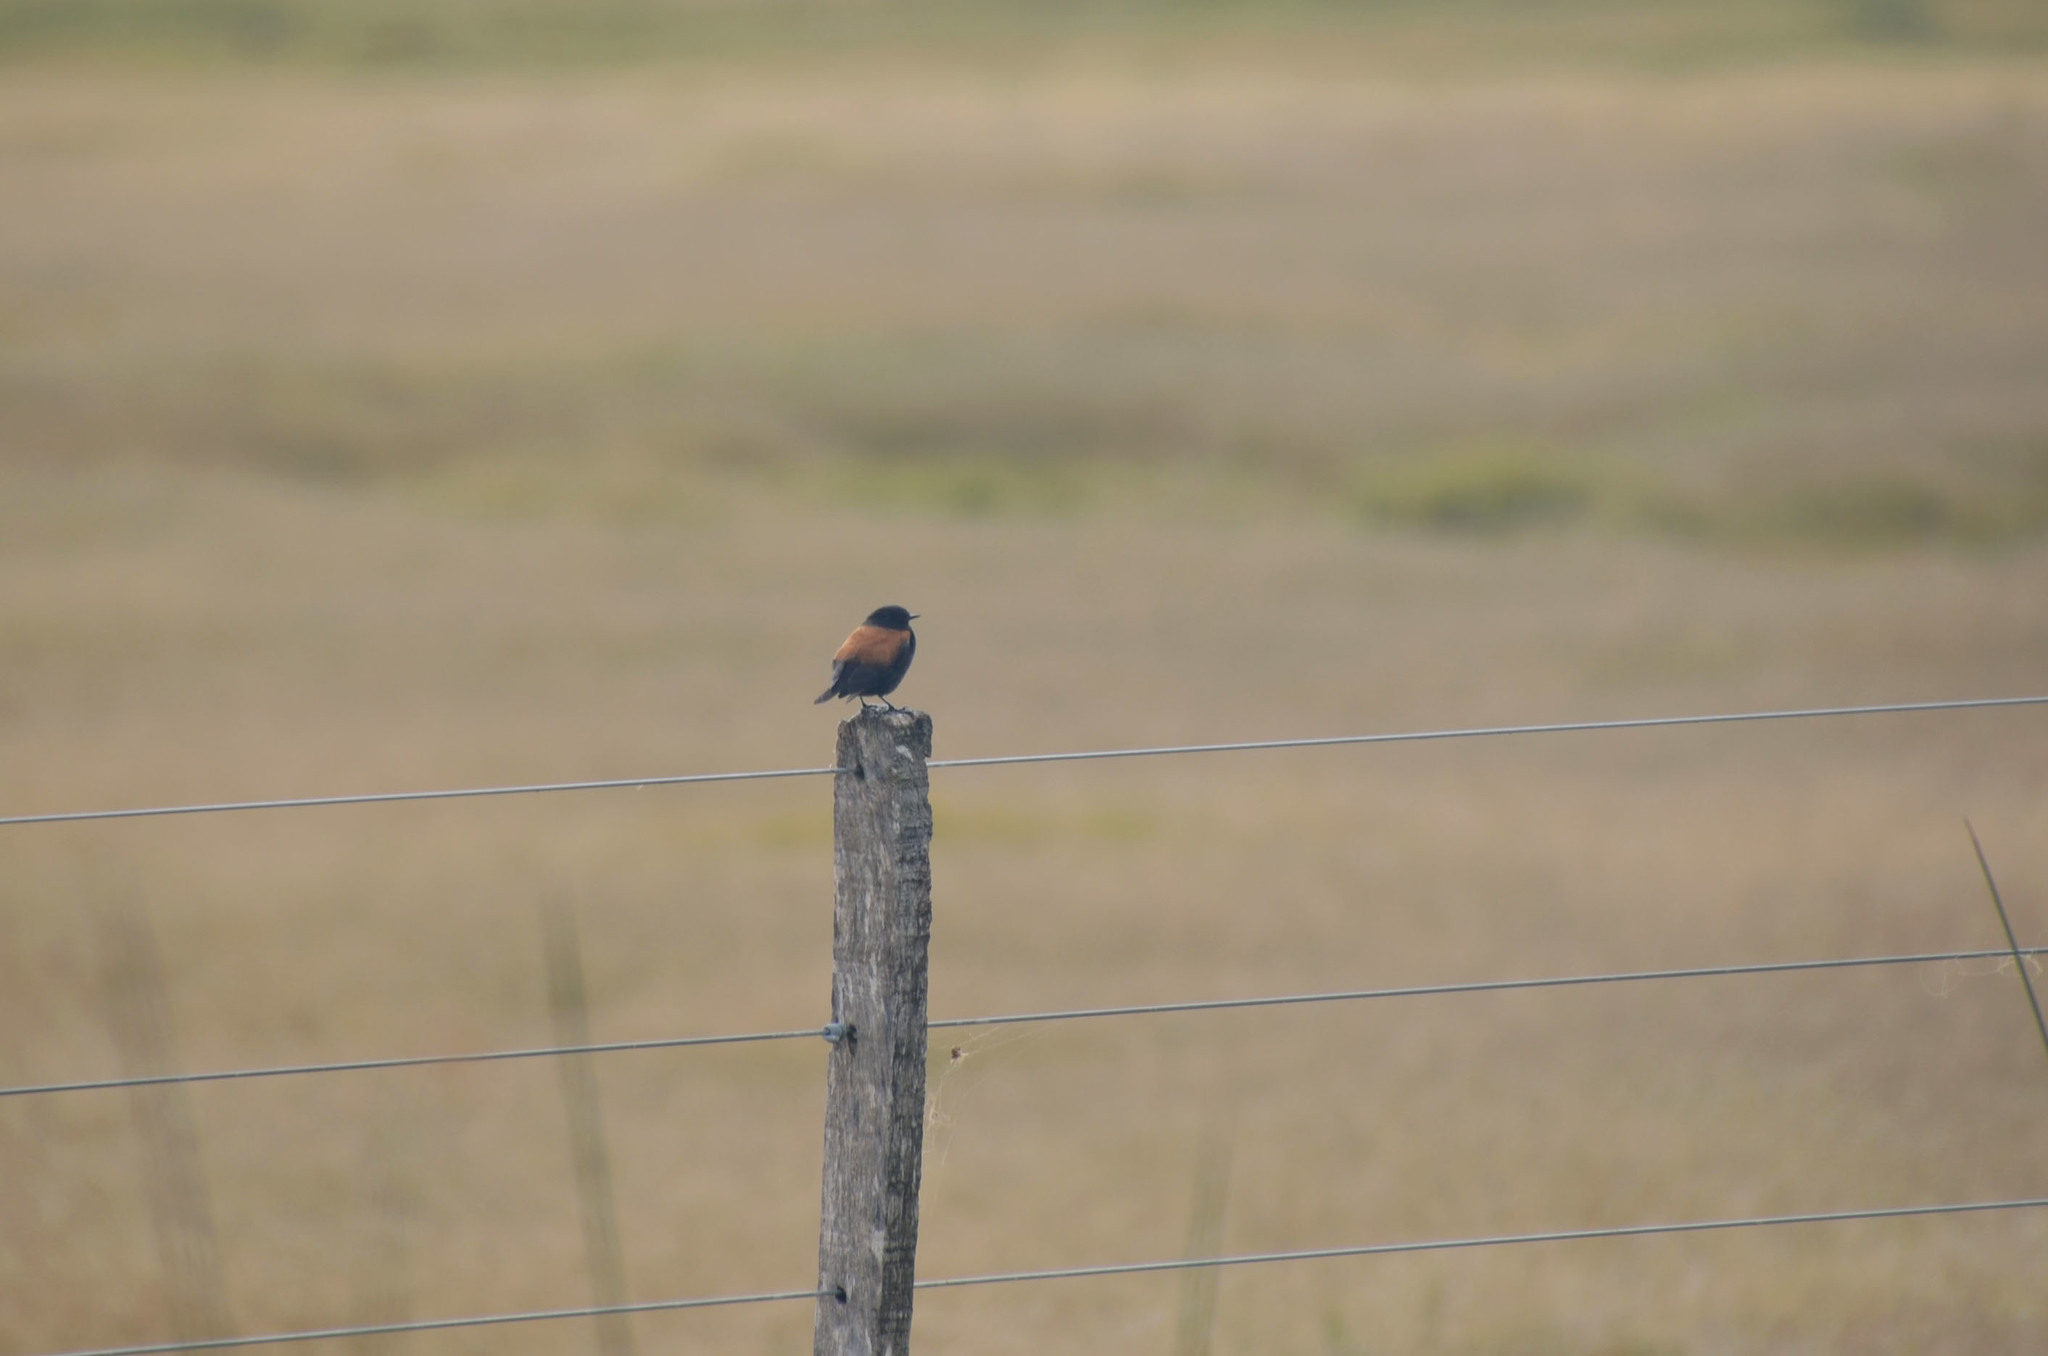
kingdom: Animalia
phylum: Chordata
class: Aves
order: Passeriformes
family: Tyrannidae
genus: Lessonia
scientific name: Lessonia rufa
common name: Austral negrito
